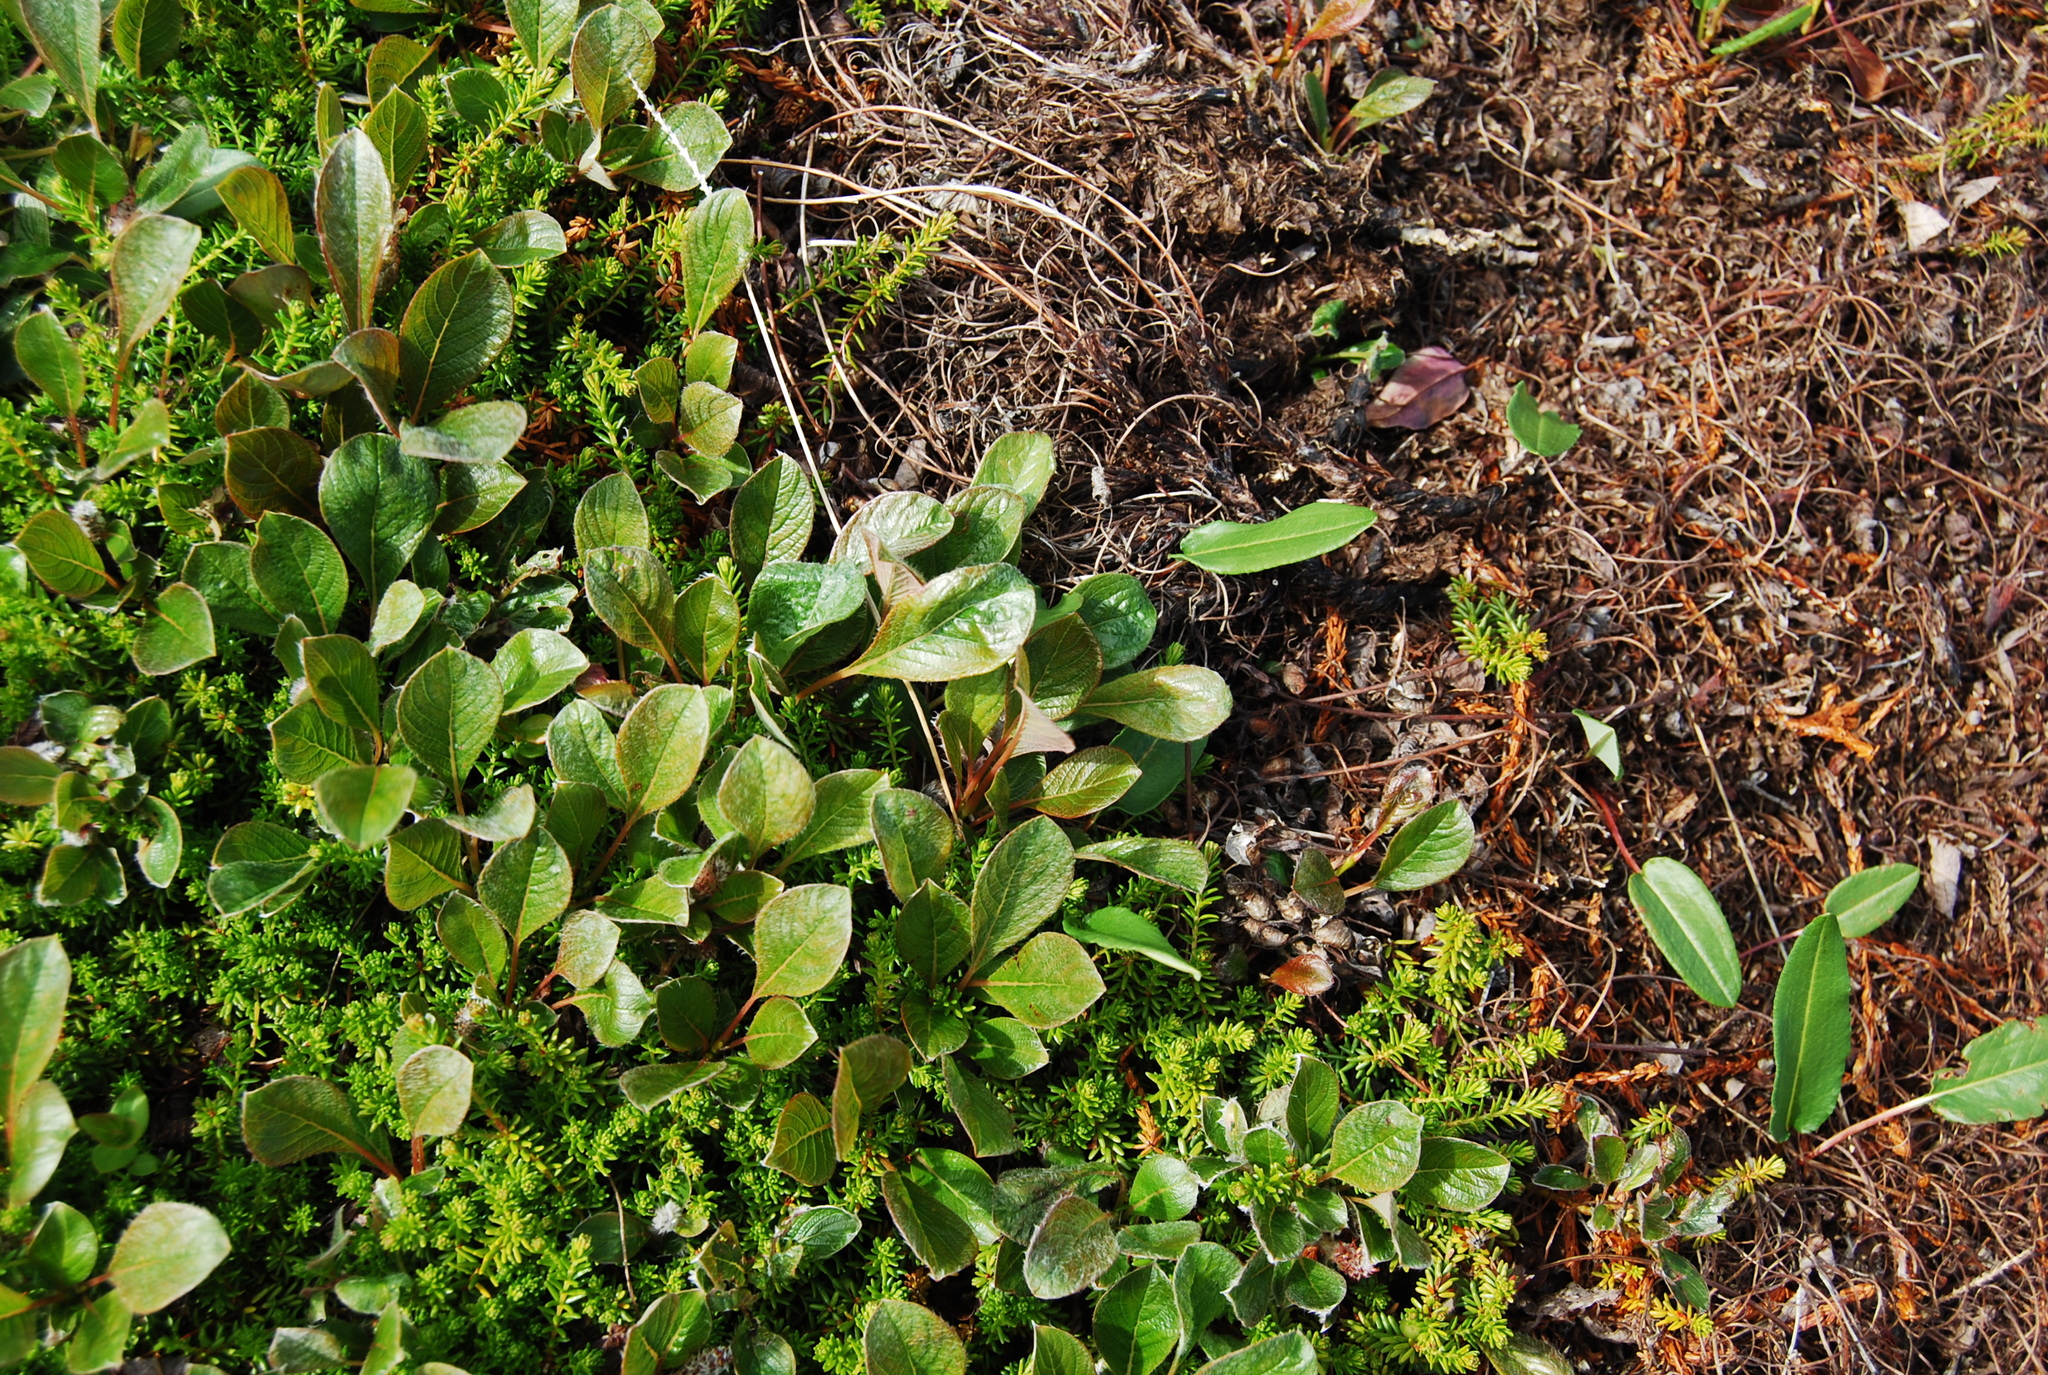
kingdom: Plantae
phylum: Tracheophyta
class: Magnoliopsida
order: Malpighiales
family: Salicaceae
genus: Salix
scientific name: Salix sphenophylla
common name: Wedge-leaved willow
